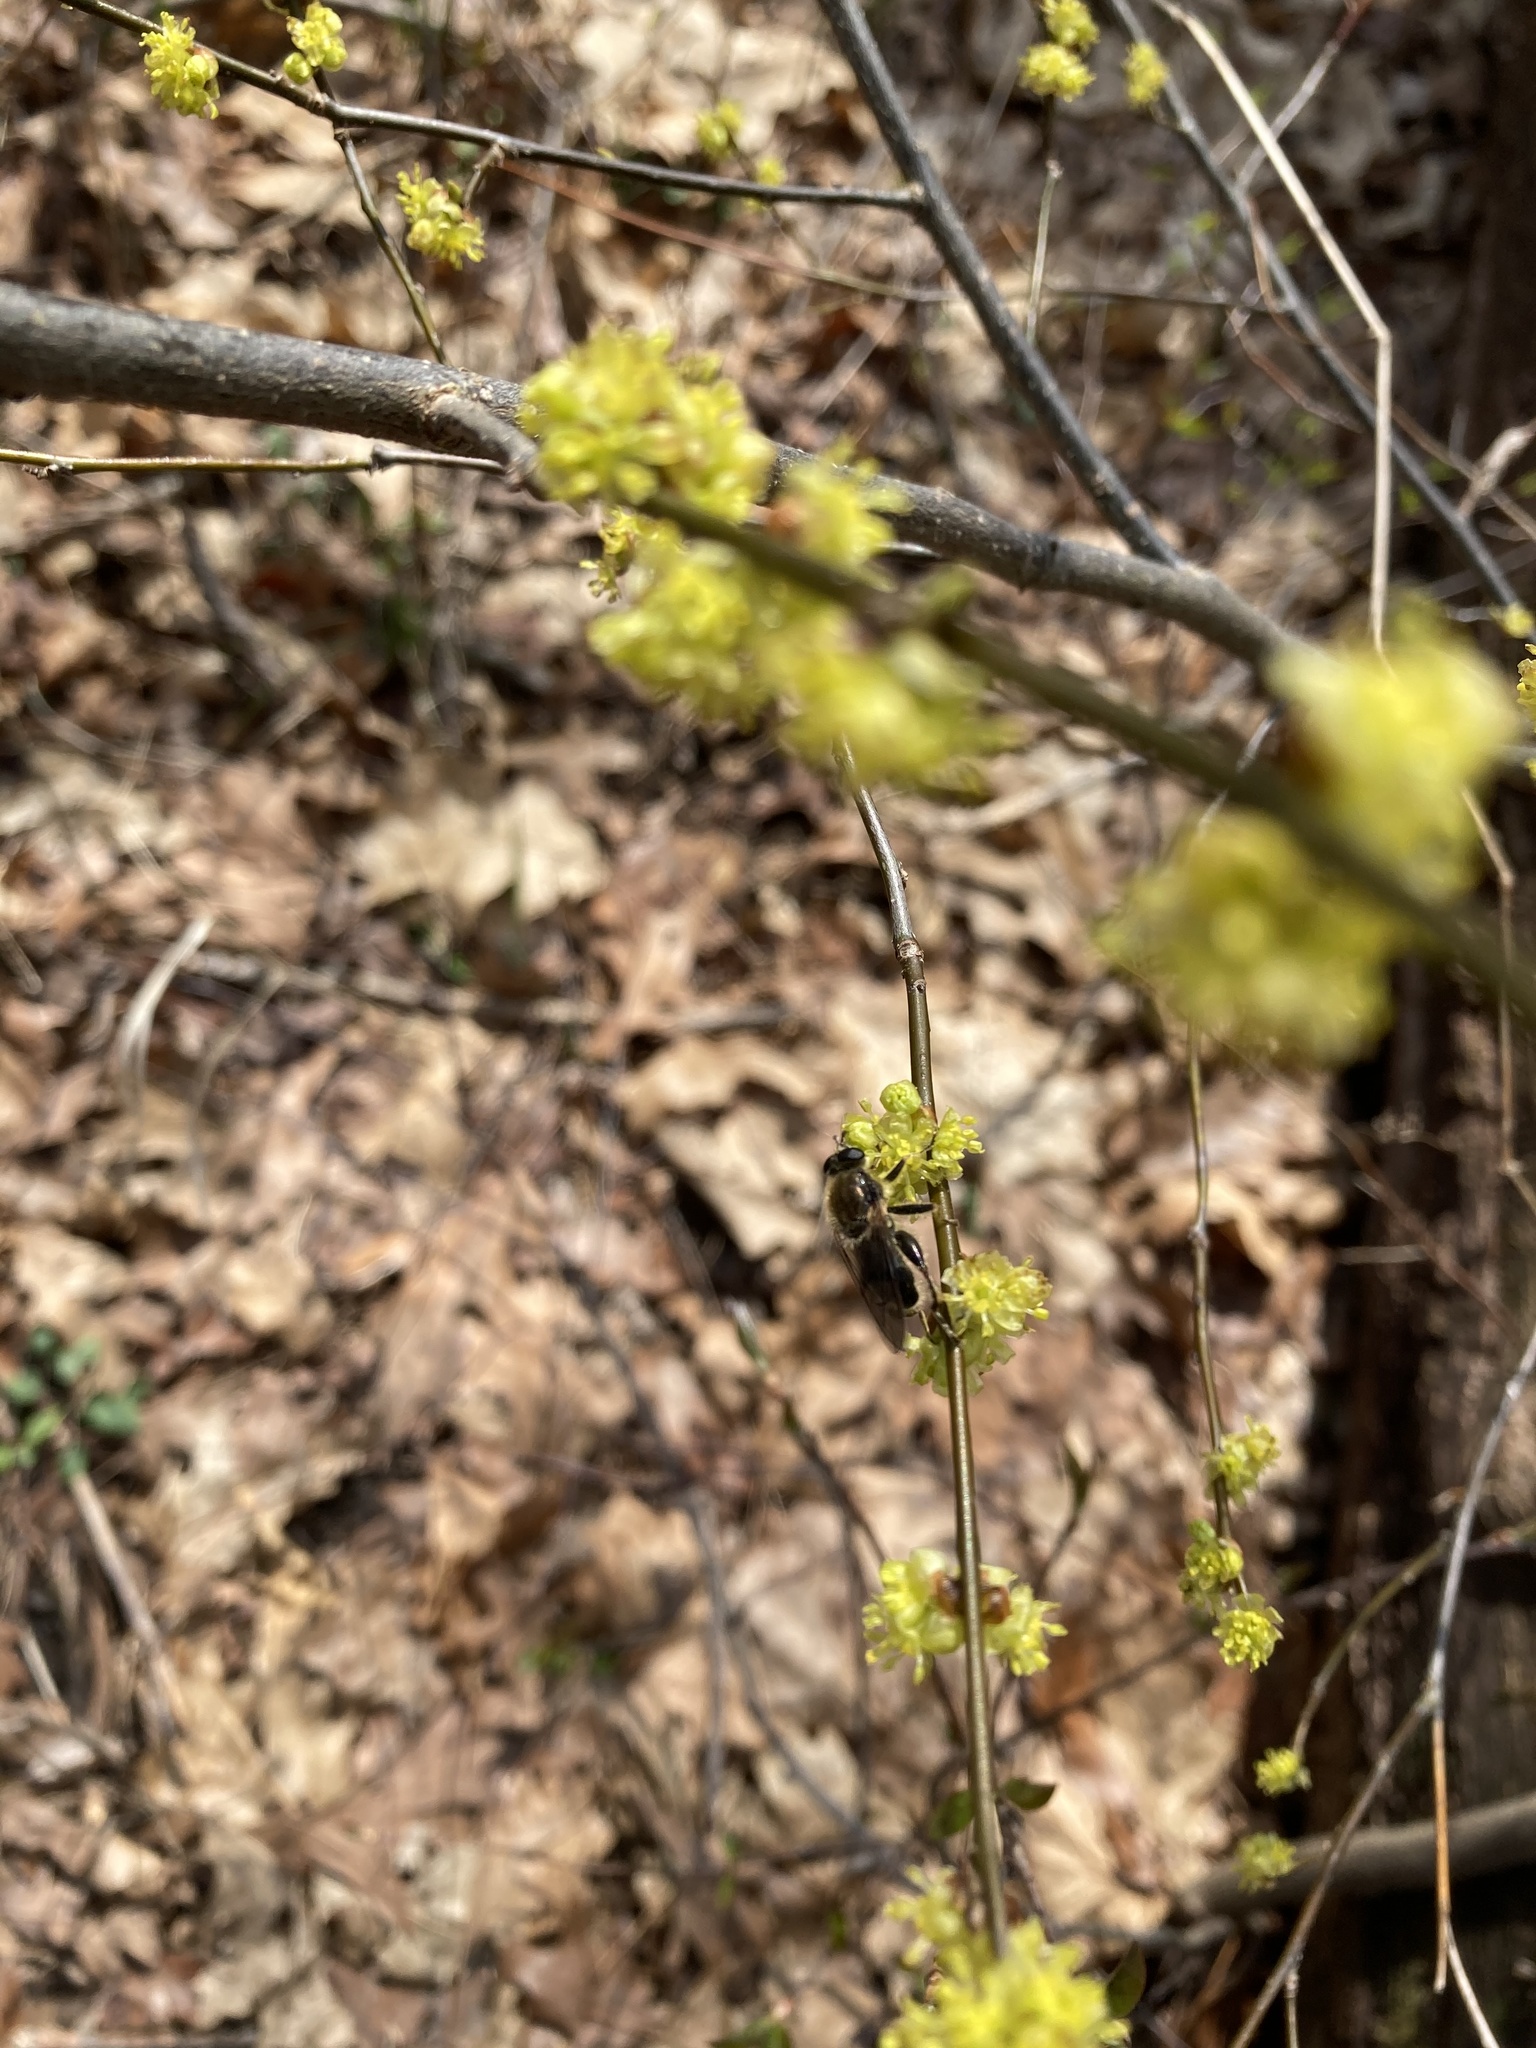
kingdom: Animalia
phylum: Arthropoda
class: Insecta
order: Diptera
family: Syrphidae
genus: Brachypalpus
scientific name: Brachypalpus oarus
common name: Eastern catkin fly
